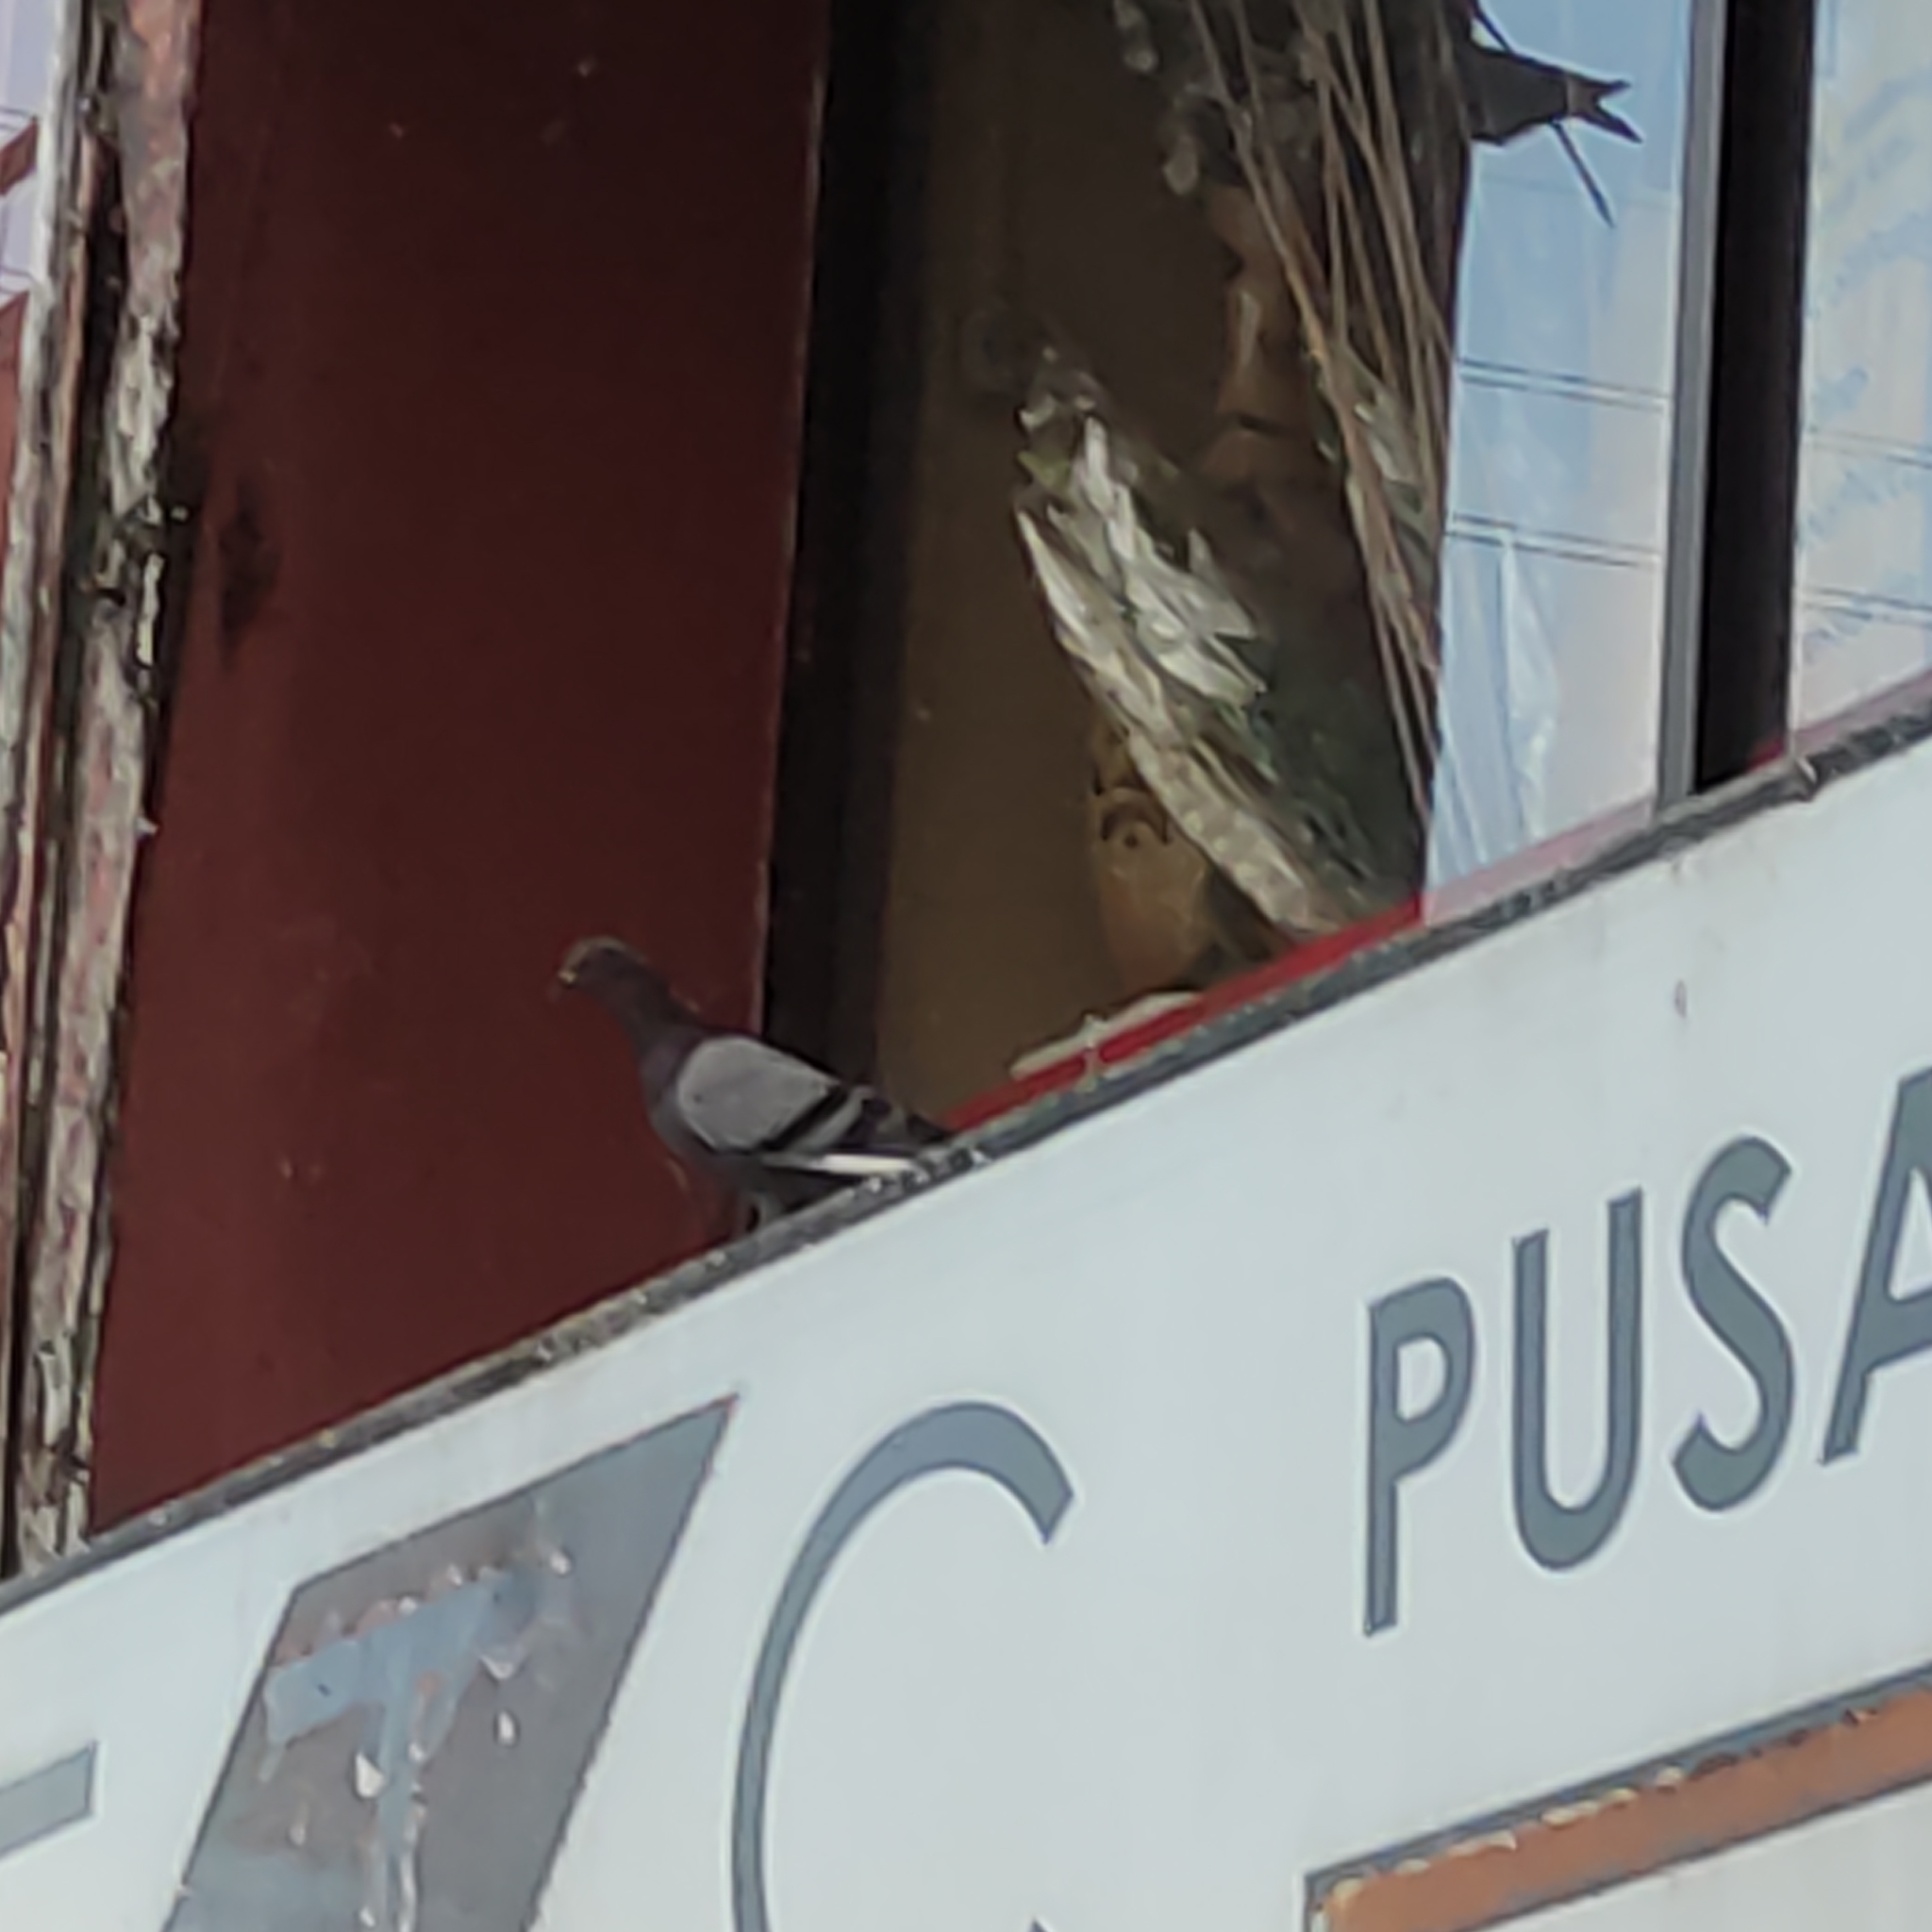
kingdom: Animalia
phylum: Chordata
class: Aves
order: Columbiformes
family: Columbidae
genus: Columba
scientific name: Columba livia
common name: Rock pigeon
